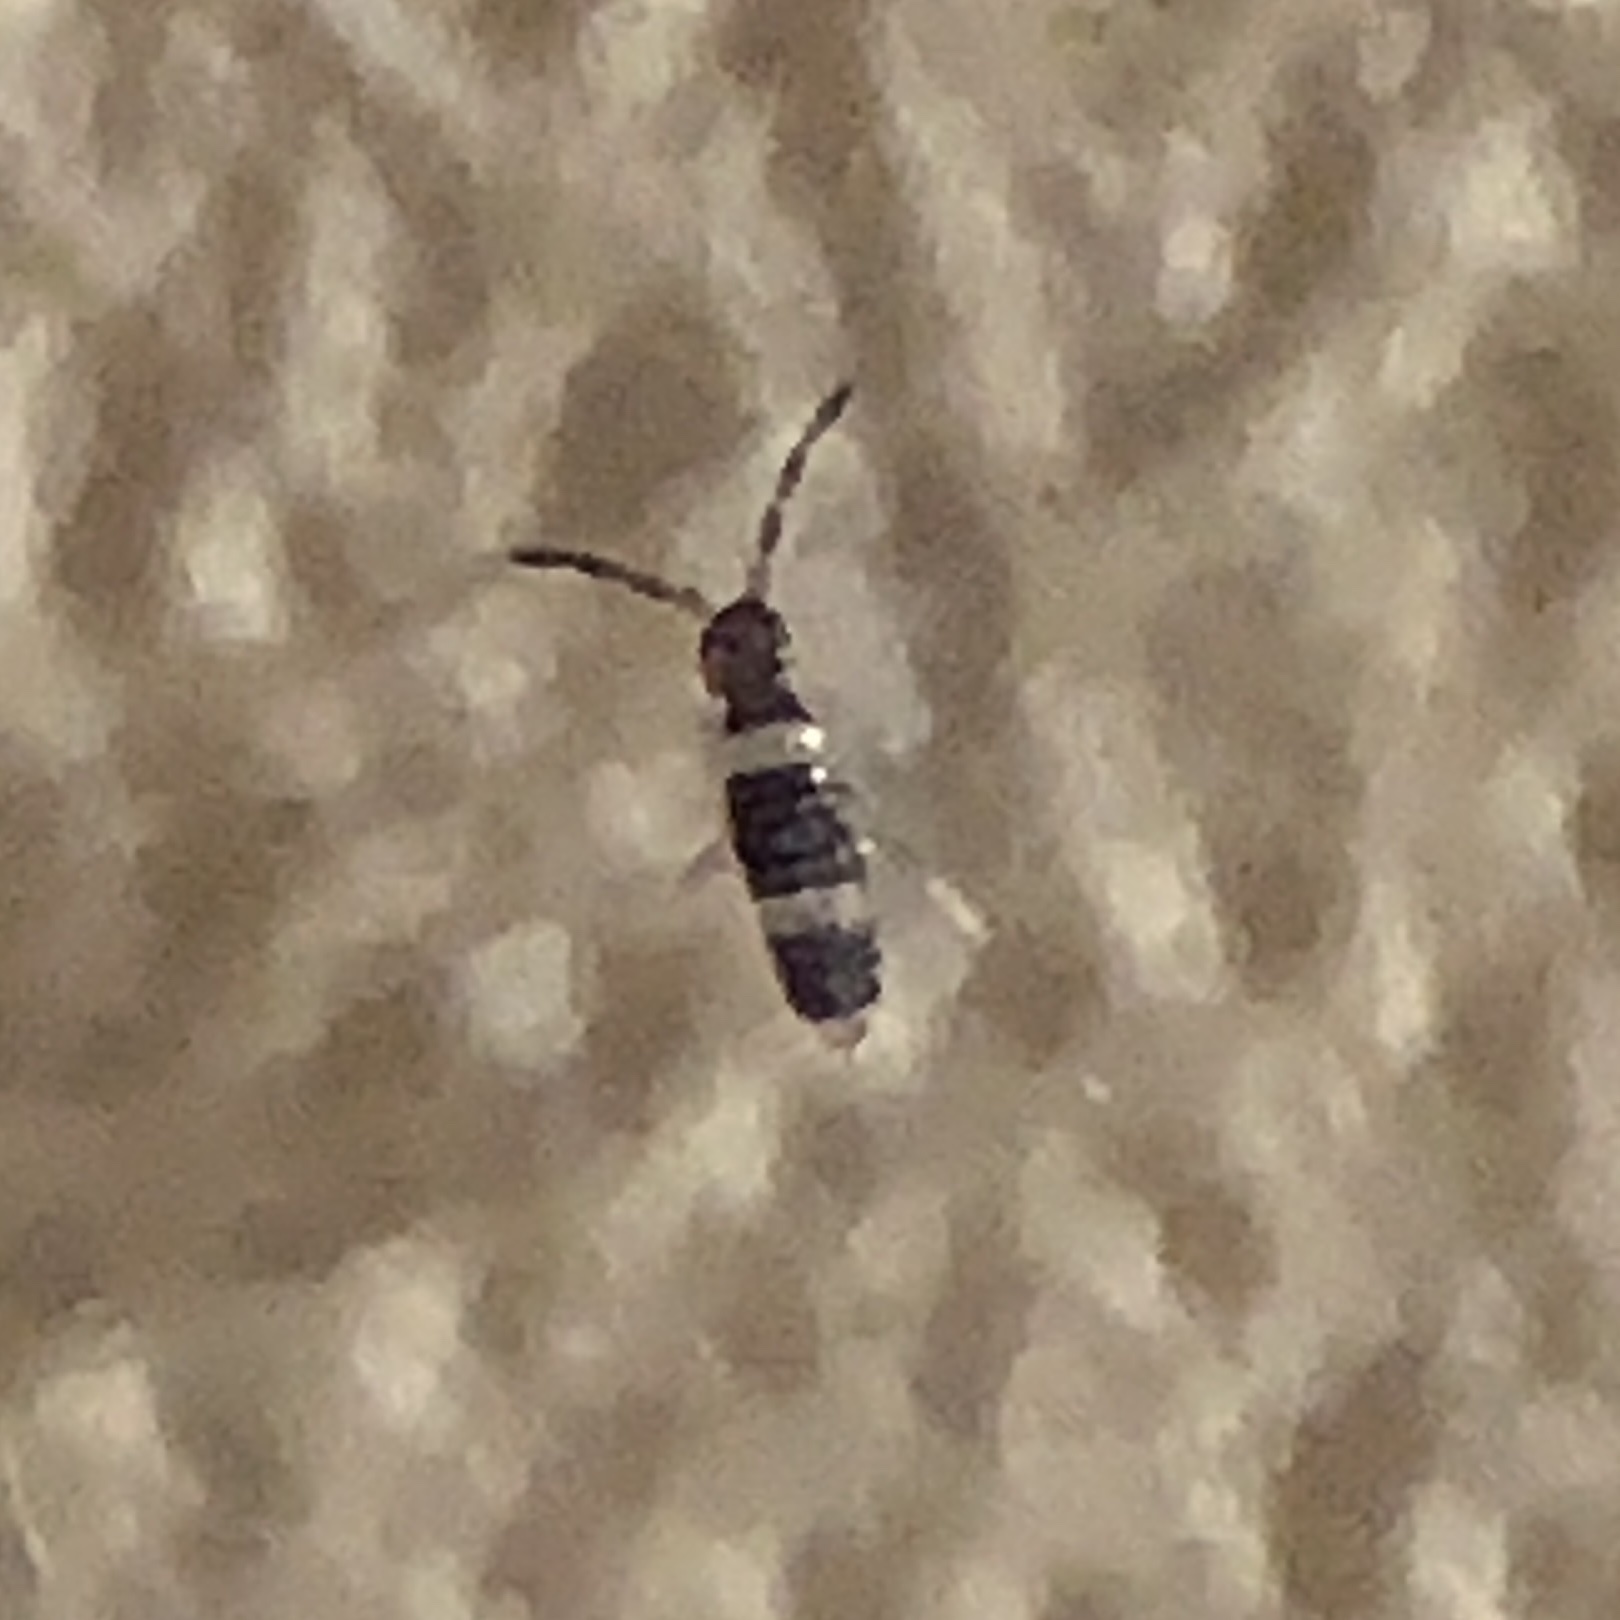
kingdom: Animalia
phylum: Arthropoda
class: Collembola
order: Entomobryomorpha
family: Entomobryidae
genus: Entomobrya
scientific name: Entomobrya albocincta
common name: Springtail
